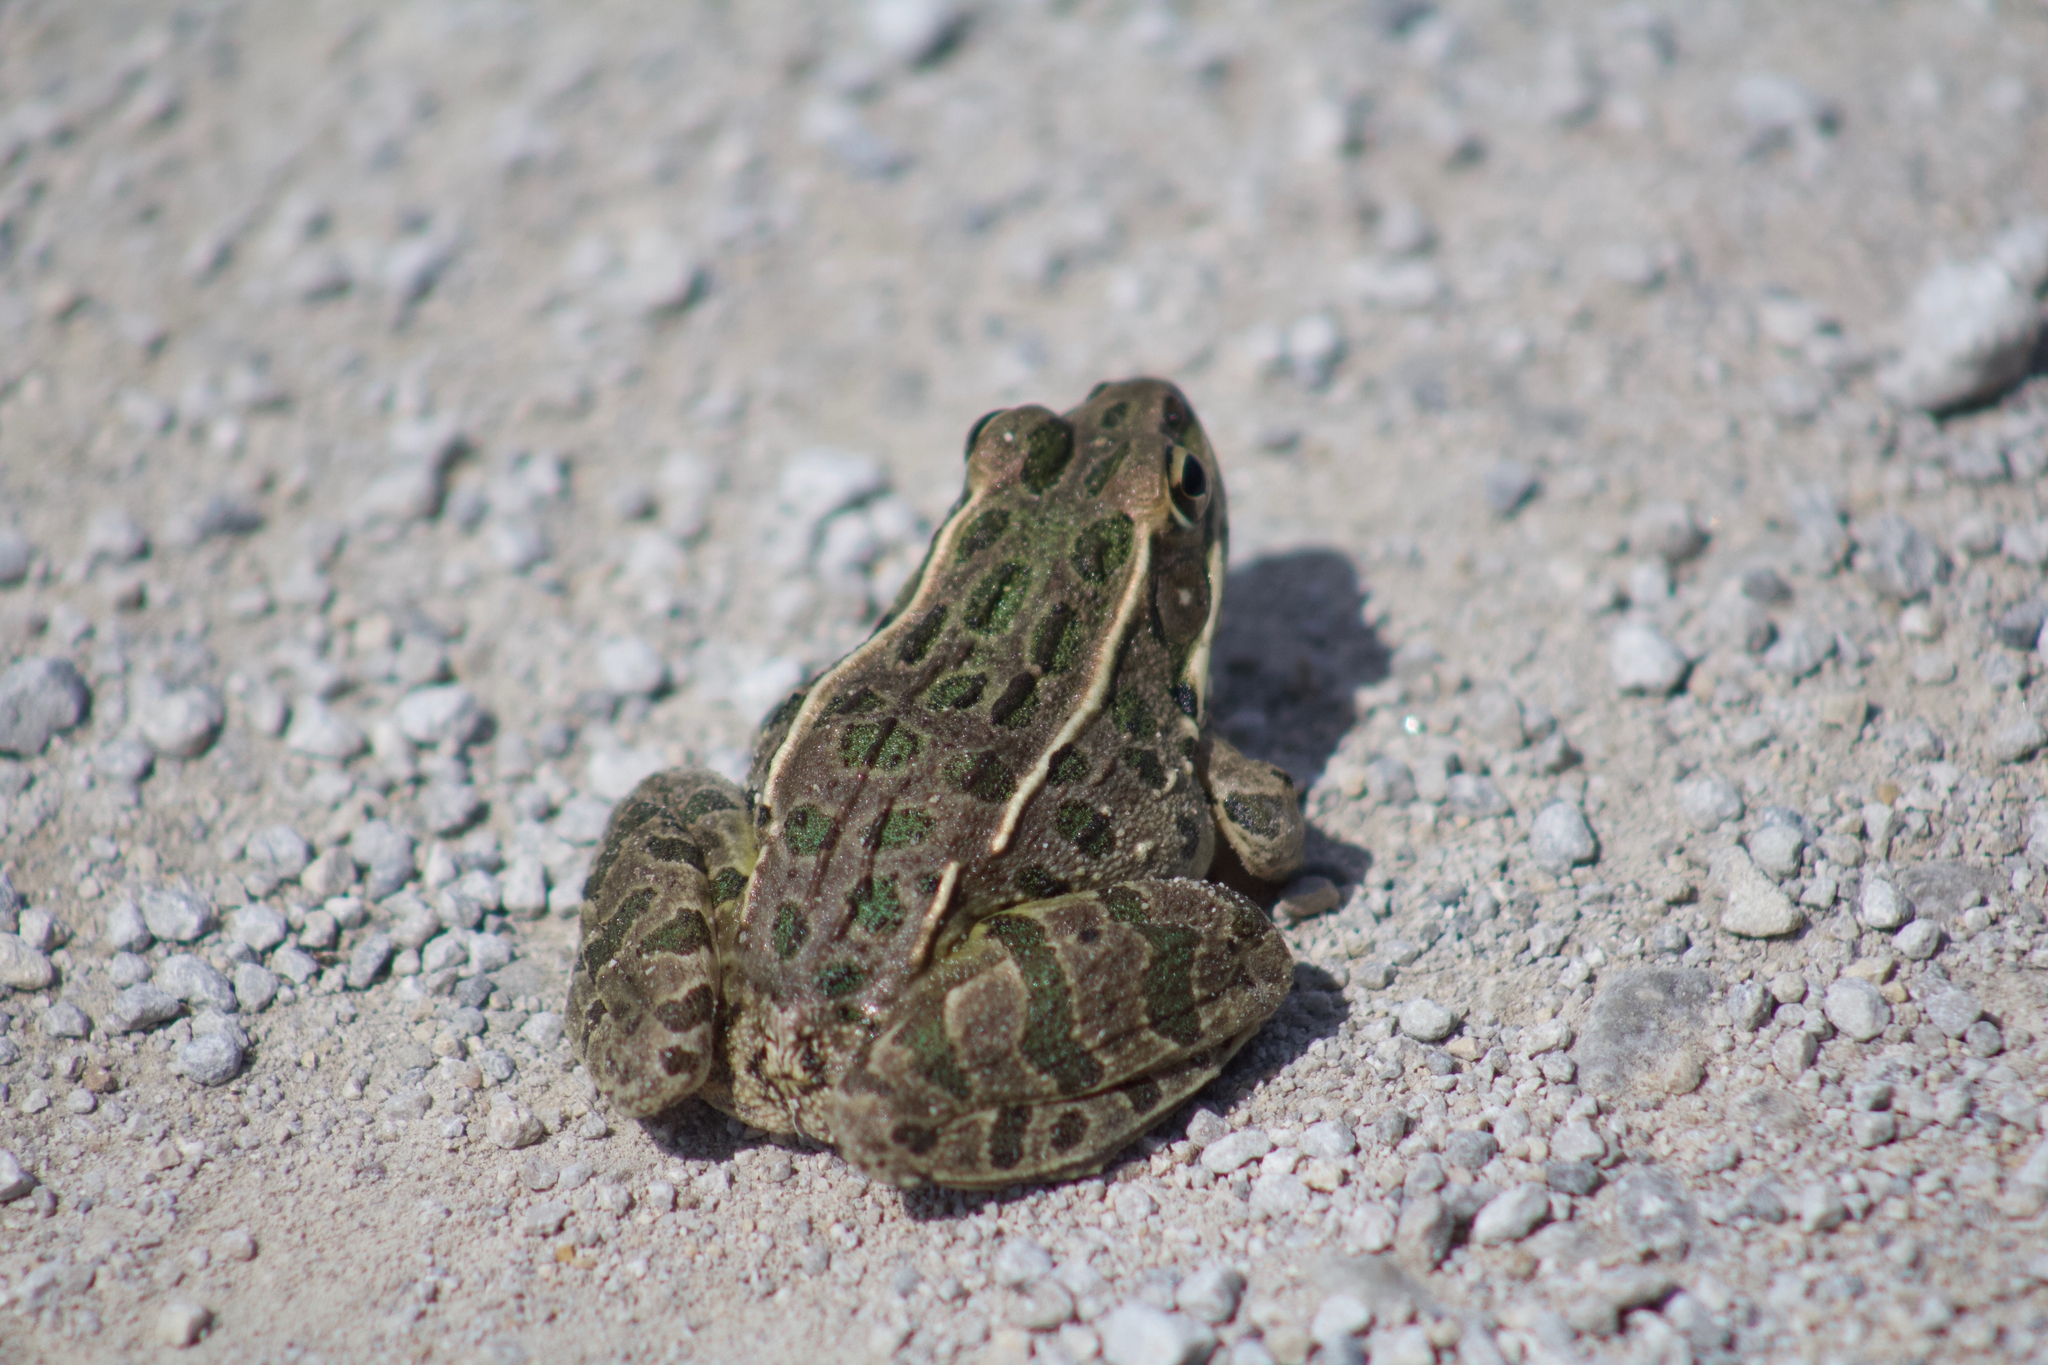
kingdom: Animalia
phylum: Chordata
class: Amphibia
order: Anura
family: Ranidae
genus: Lithobates
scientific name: Lithobates blairi
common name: Plains leopard frog
